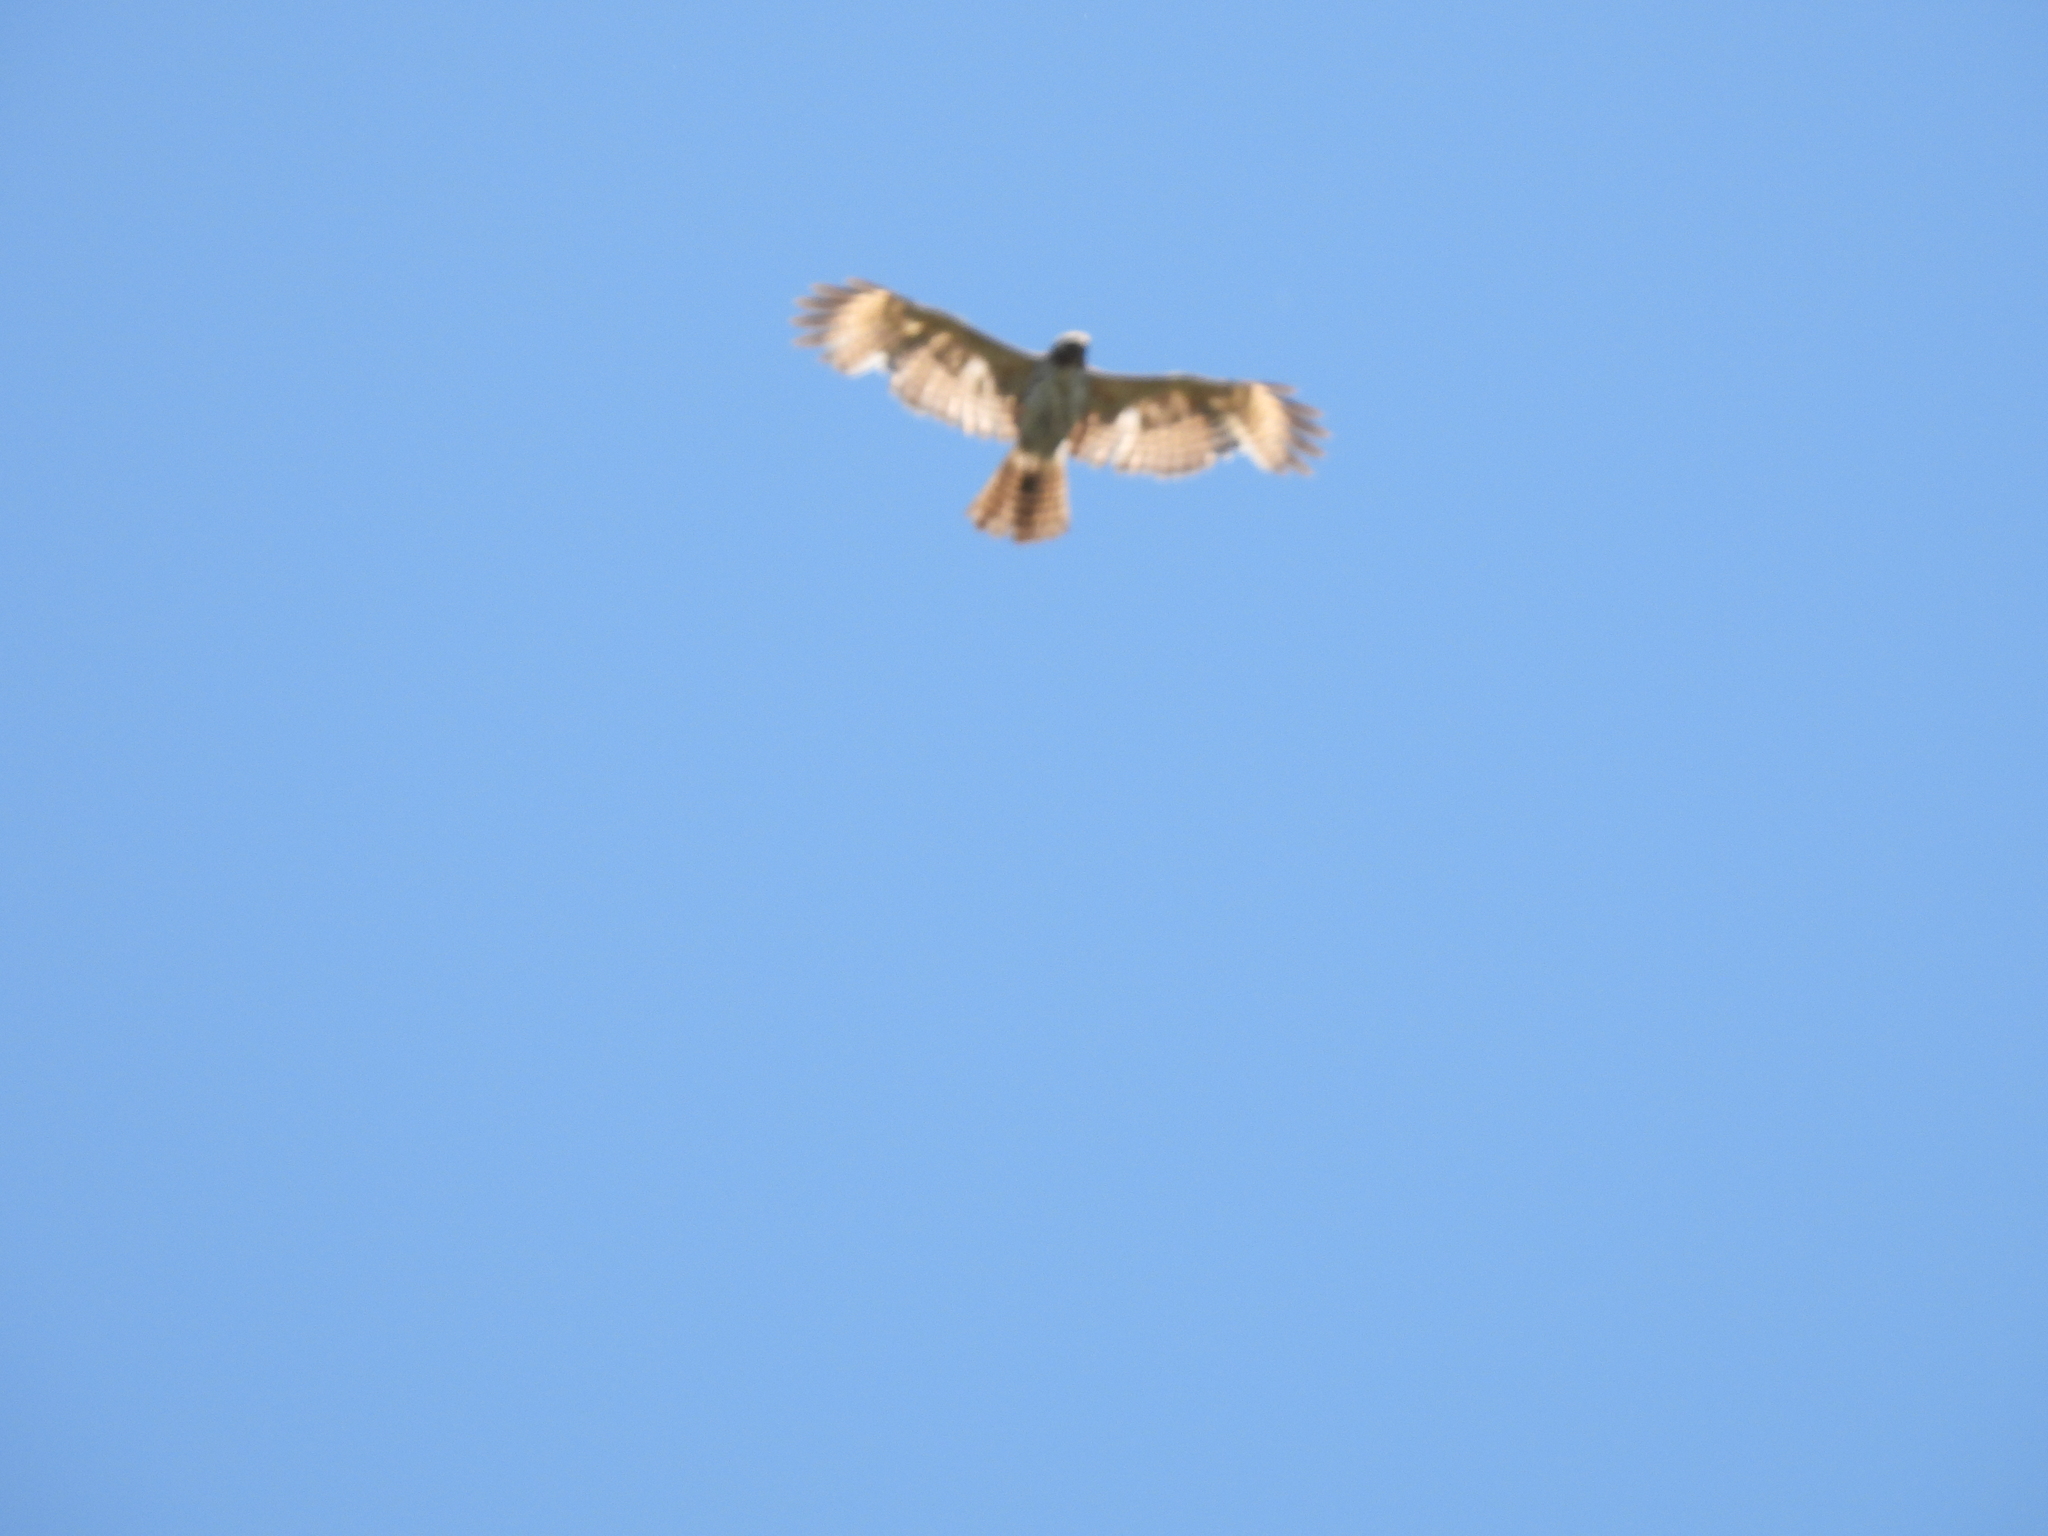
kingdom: Animalia
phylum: Chordata
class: Aves
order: Accipitriformes
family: Accipitridae
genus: Buteo
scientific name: Buteo lineatus
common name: Red-shouldered hawk
